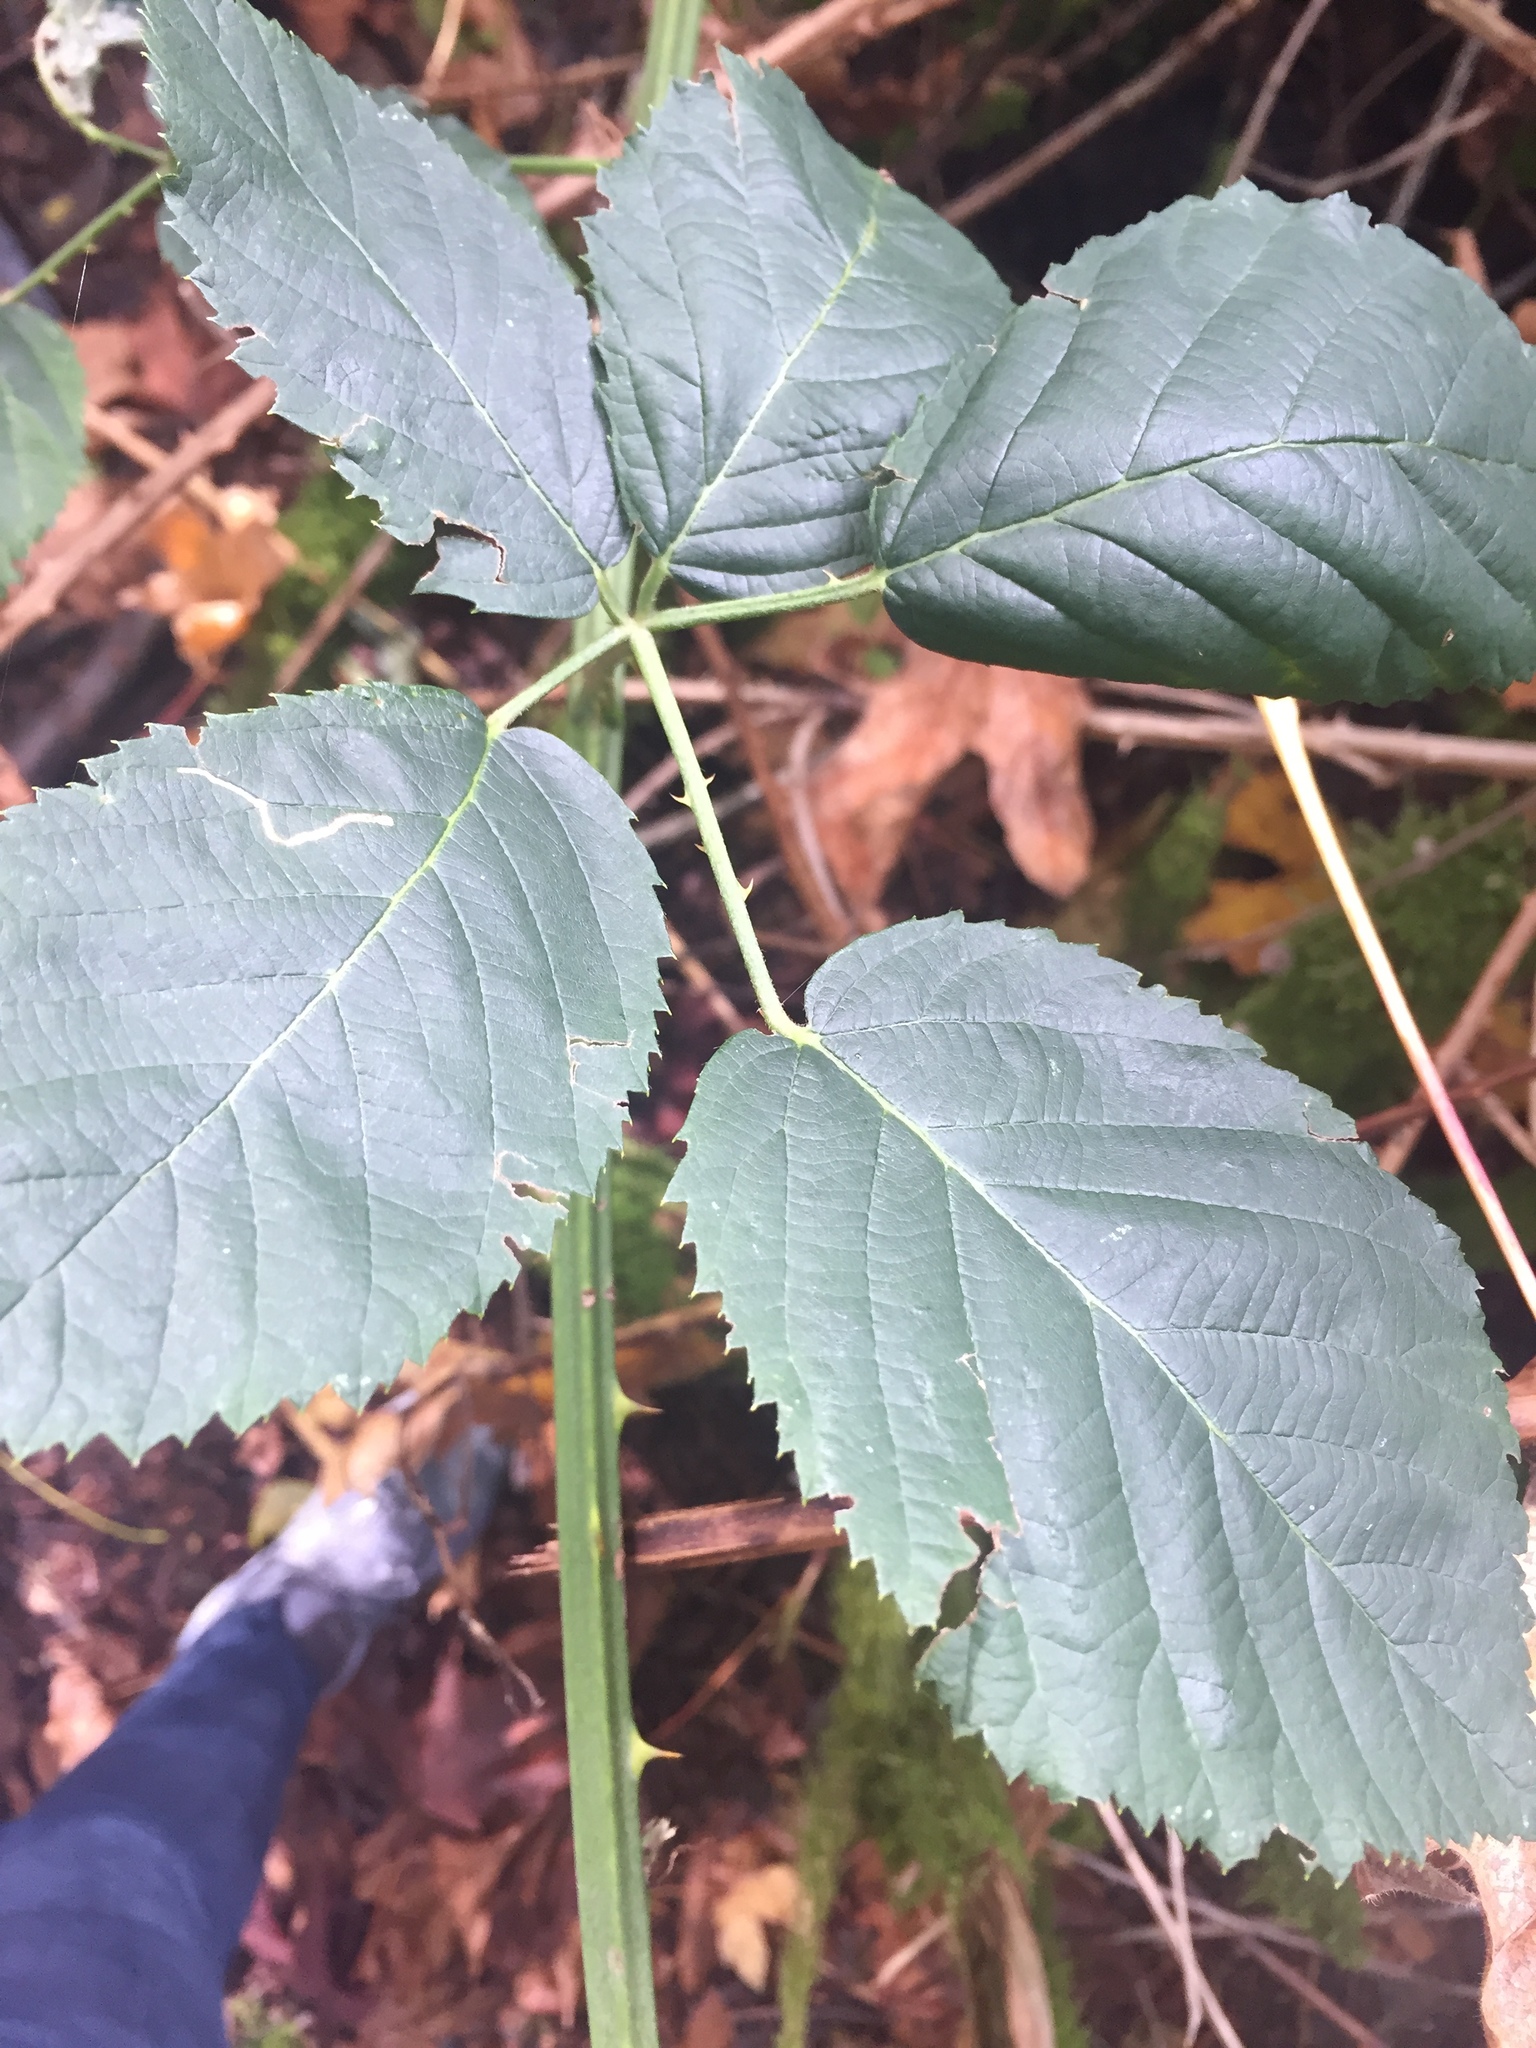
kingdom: Plantae
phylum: Tracheophyta
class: Magnoliopsida
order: Rosales
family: Rosaceae
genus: Rubus
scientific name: Rubus armeniacus
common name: Himalayan blackberry
